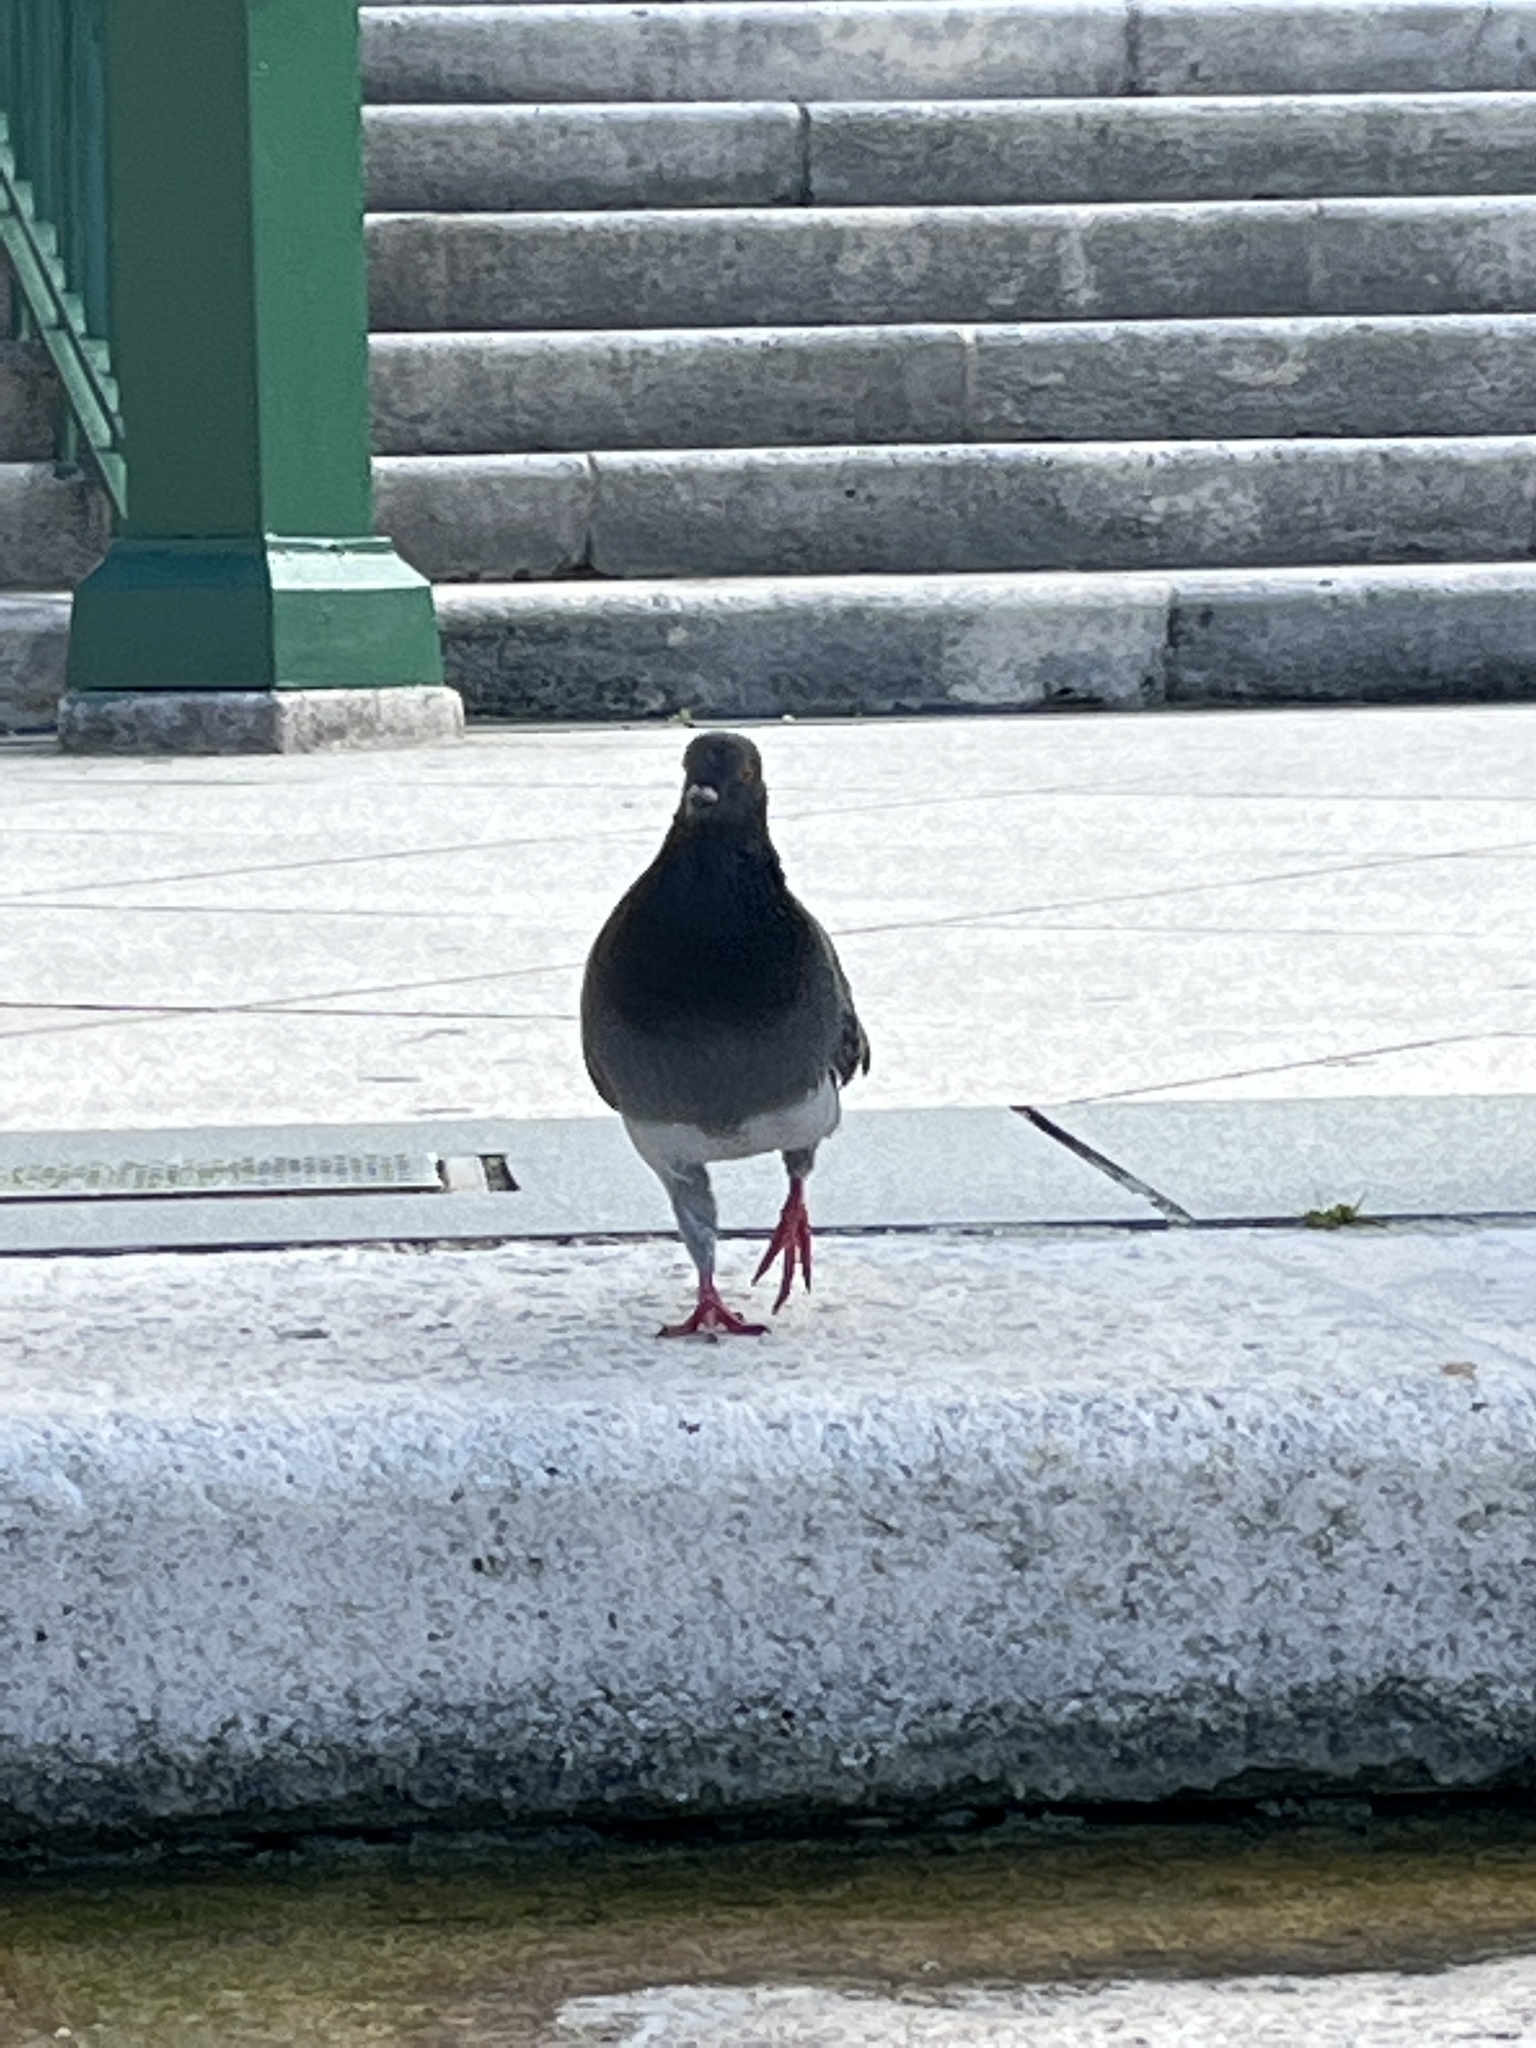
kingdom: Animalia
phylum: Chordata
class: Aves
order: Columbiformes
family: Columbidae
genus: Columba
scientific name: Columba livia
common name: Rock pigeon
